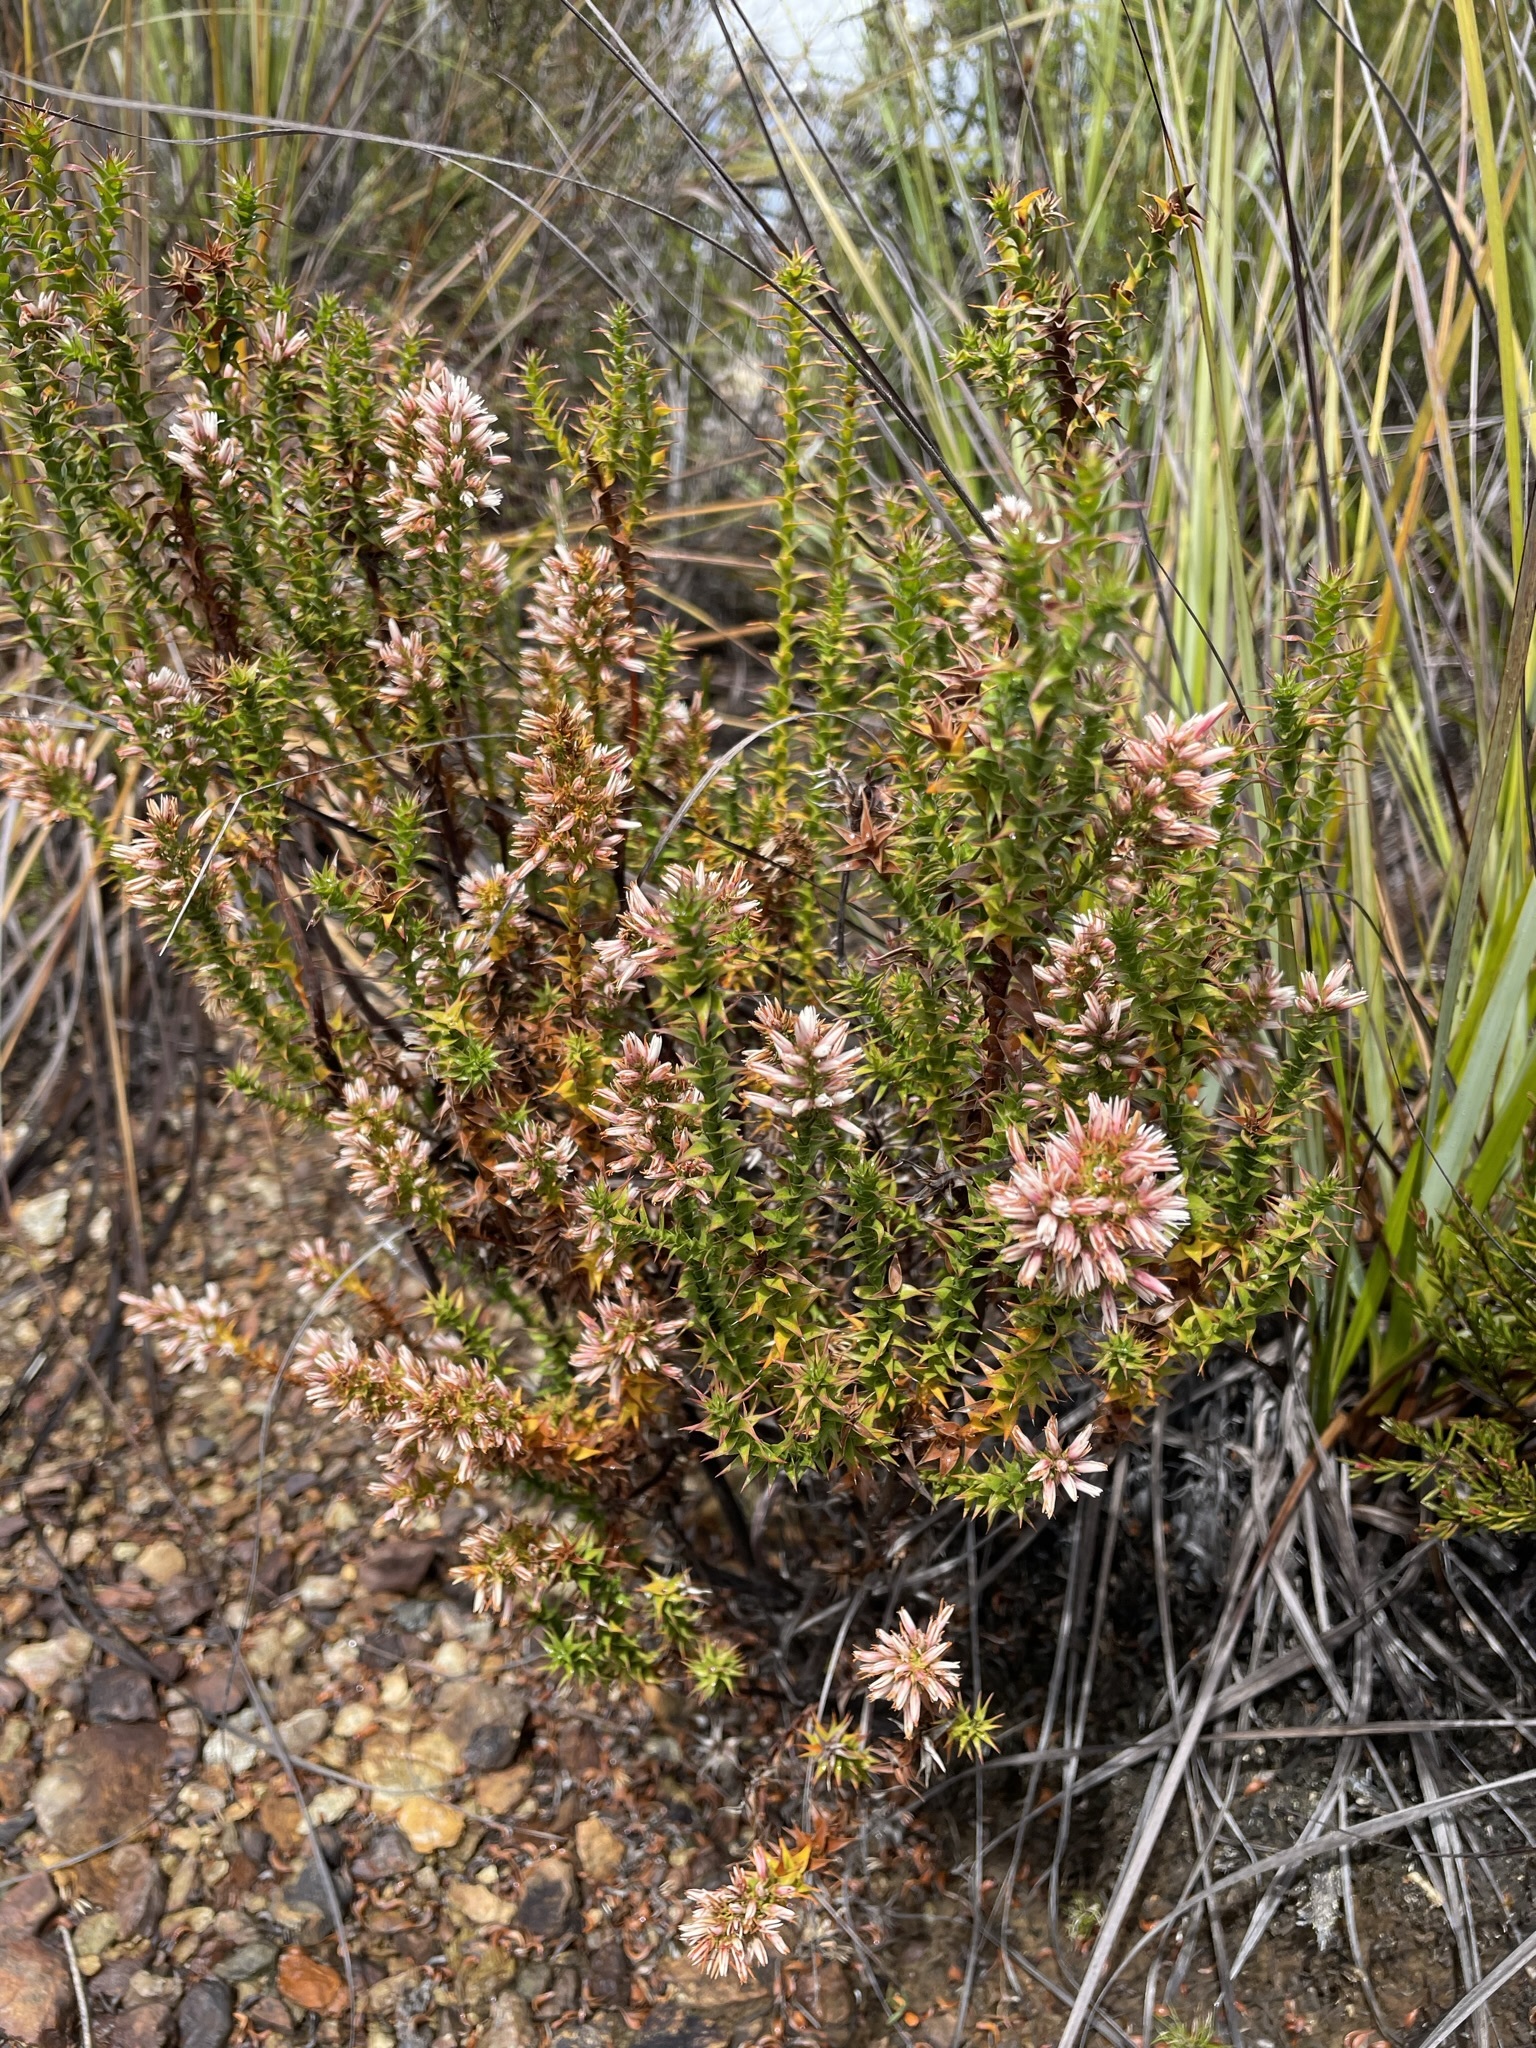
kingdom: Plantae
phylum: Tracheophyta
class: Magnoliopsida
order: Ericales
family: Ericaceae
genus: Sprengelia
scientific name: Sprengelia incarnata
